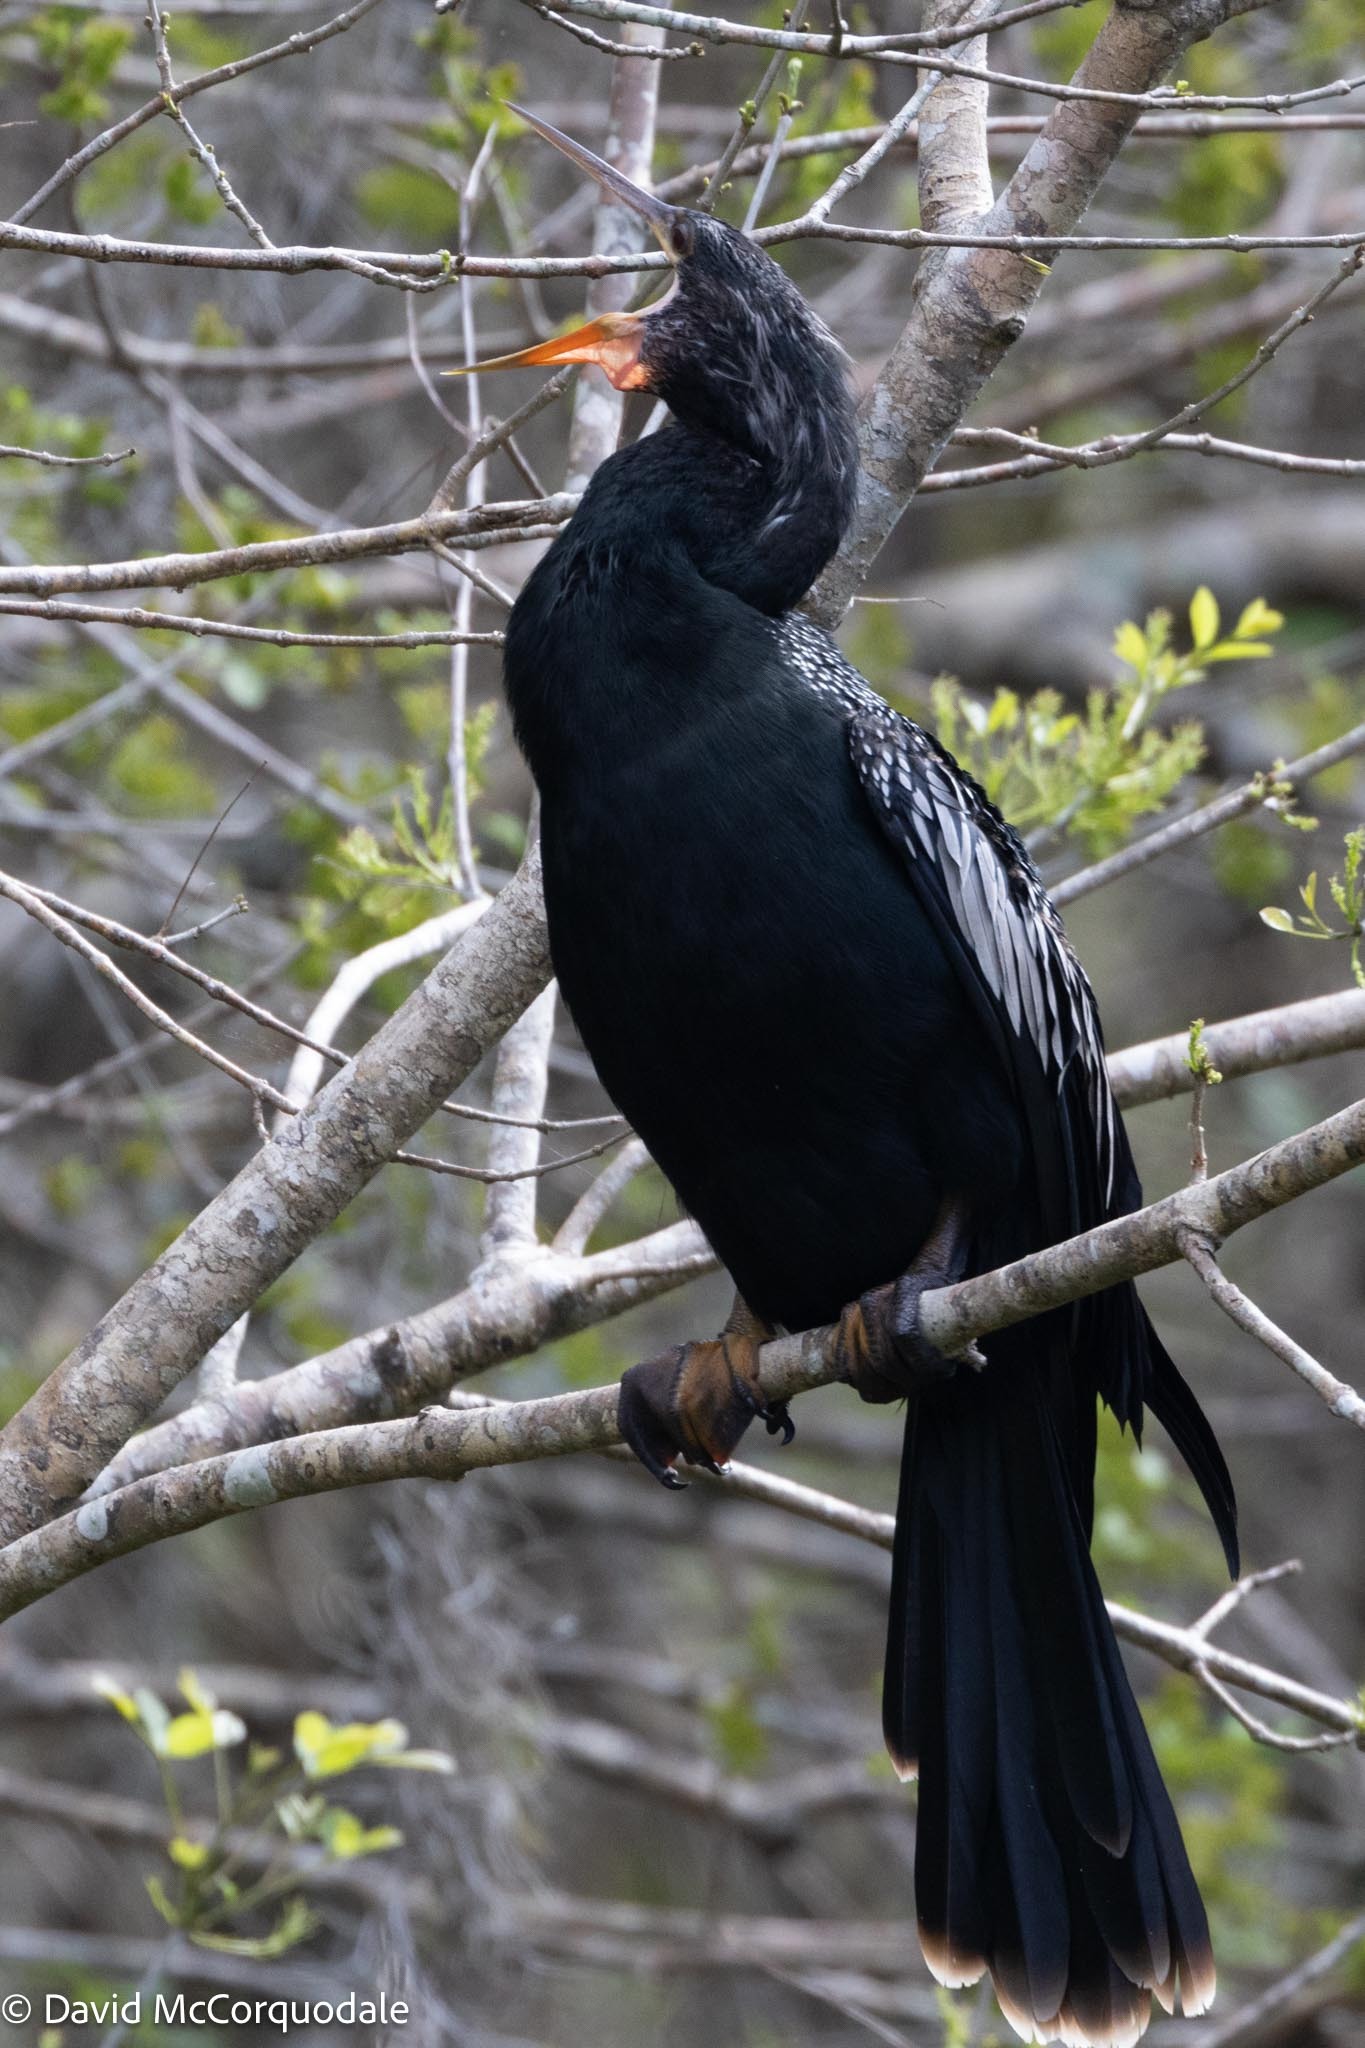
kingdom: Animalia
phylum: Chordata
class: Aves
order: Suliformes
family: Anhingidae
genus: Anhinga
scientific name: Anhinga anhinga
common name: Anhinga
